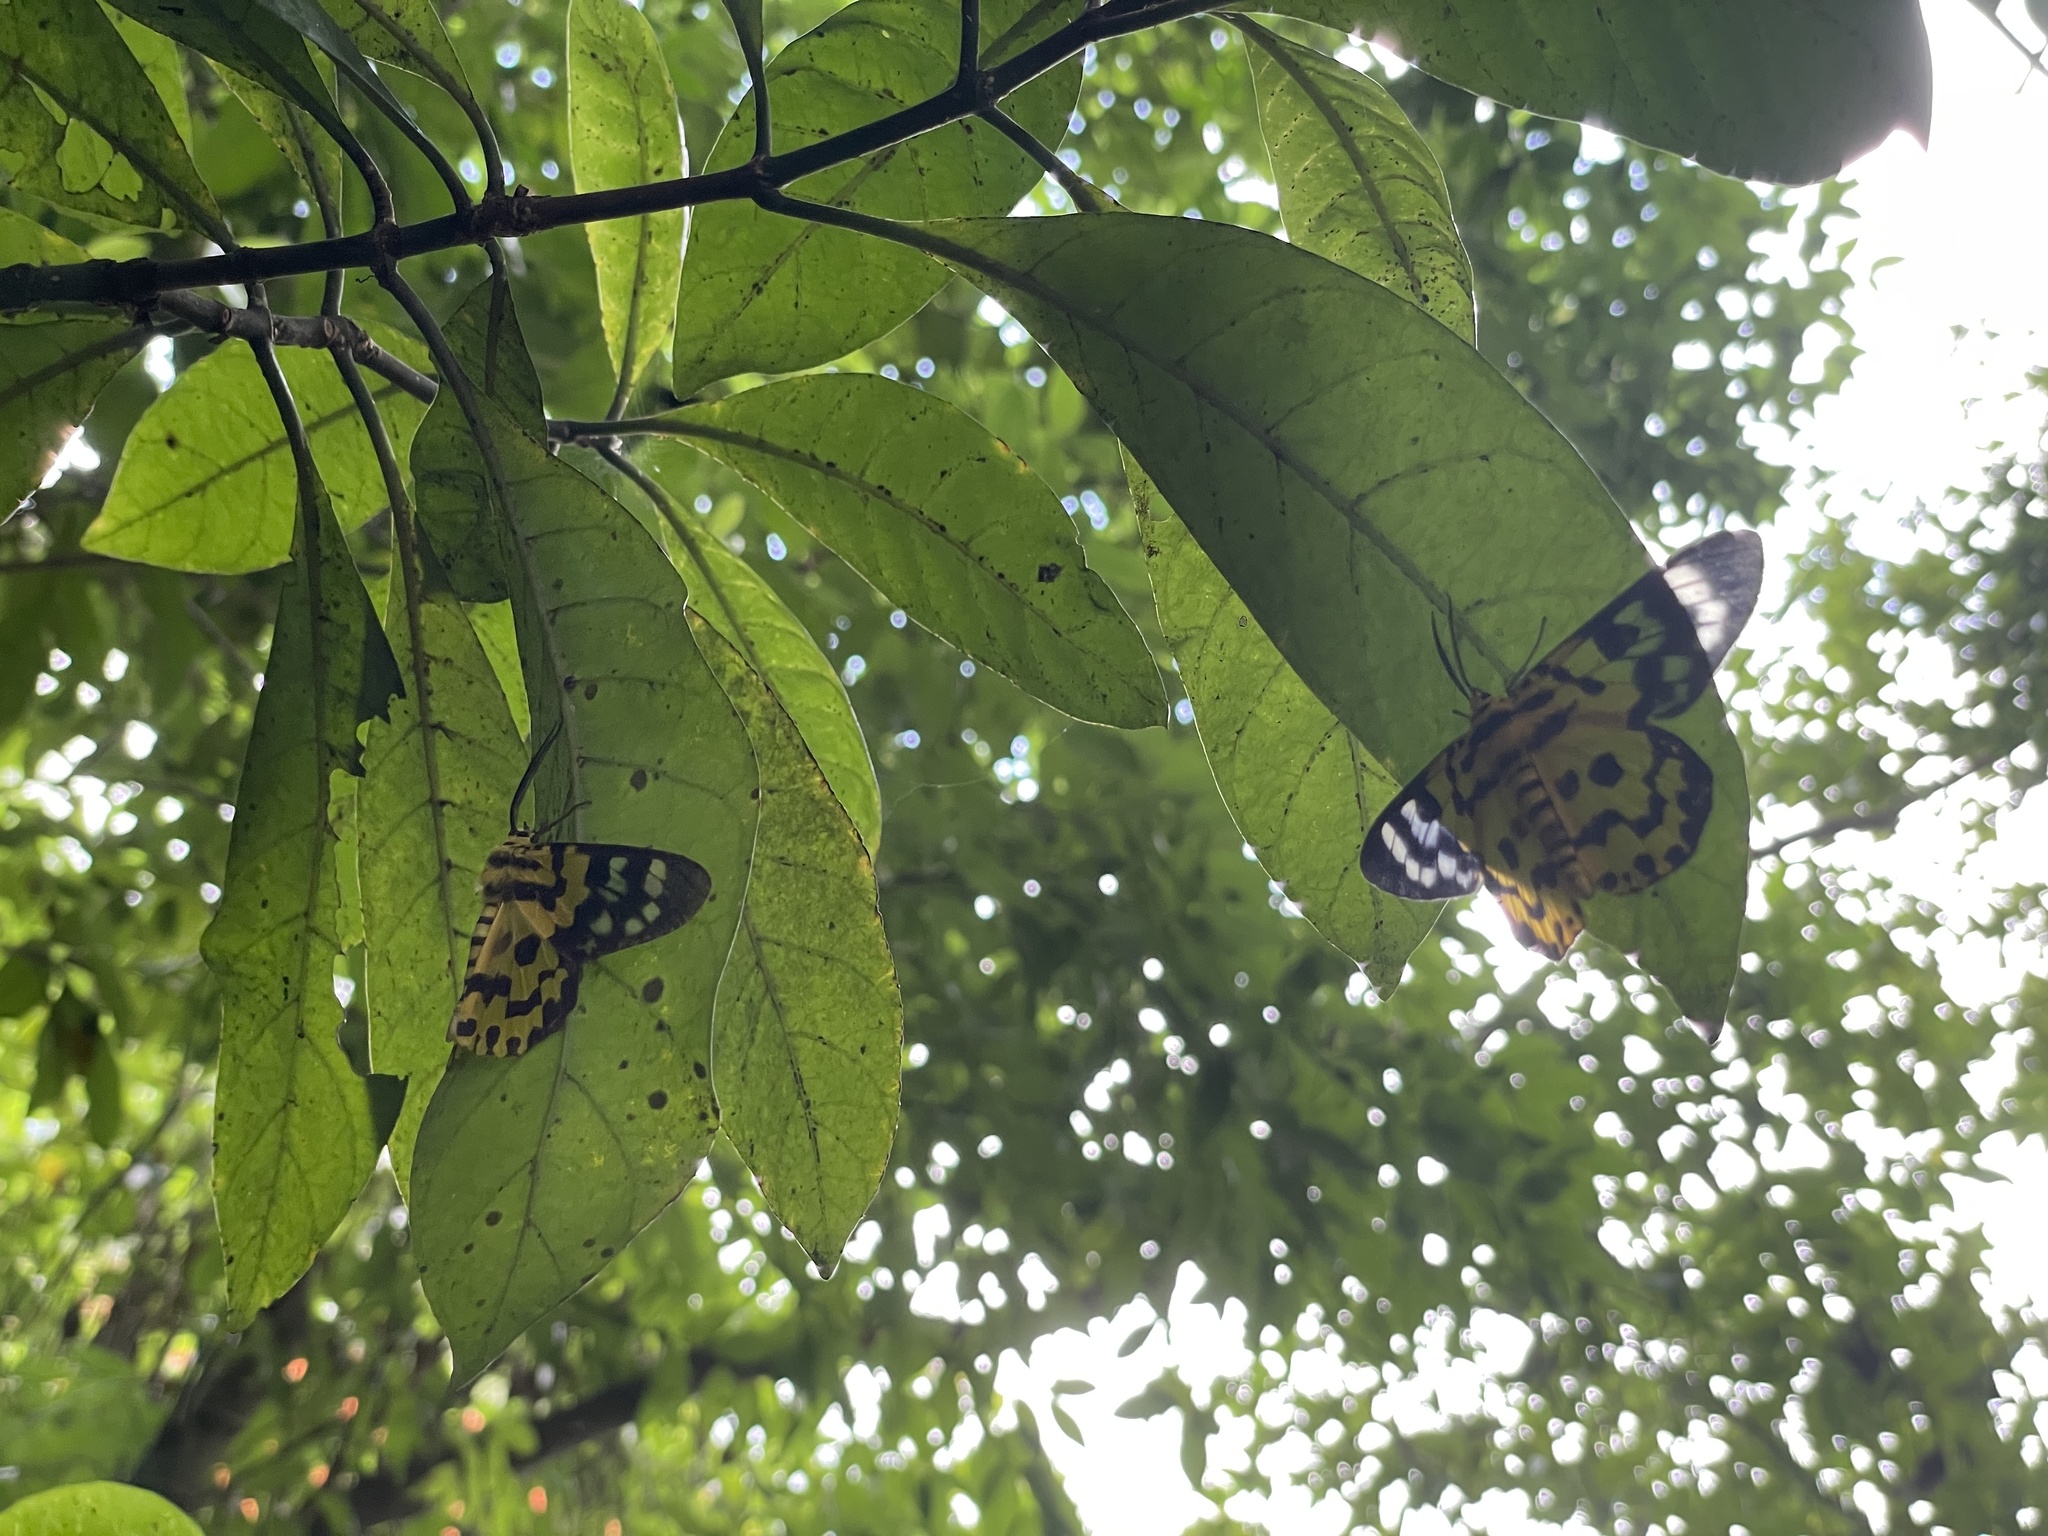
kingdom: Animalia
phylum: Arthropoda
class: Insecta
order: Lepidoptera
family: Geometridae
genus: Dysphania
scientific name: Dysphania militaris
